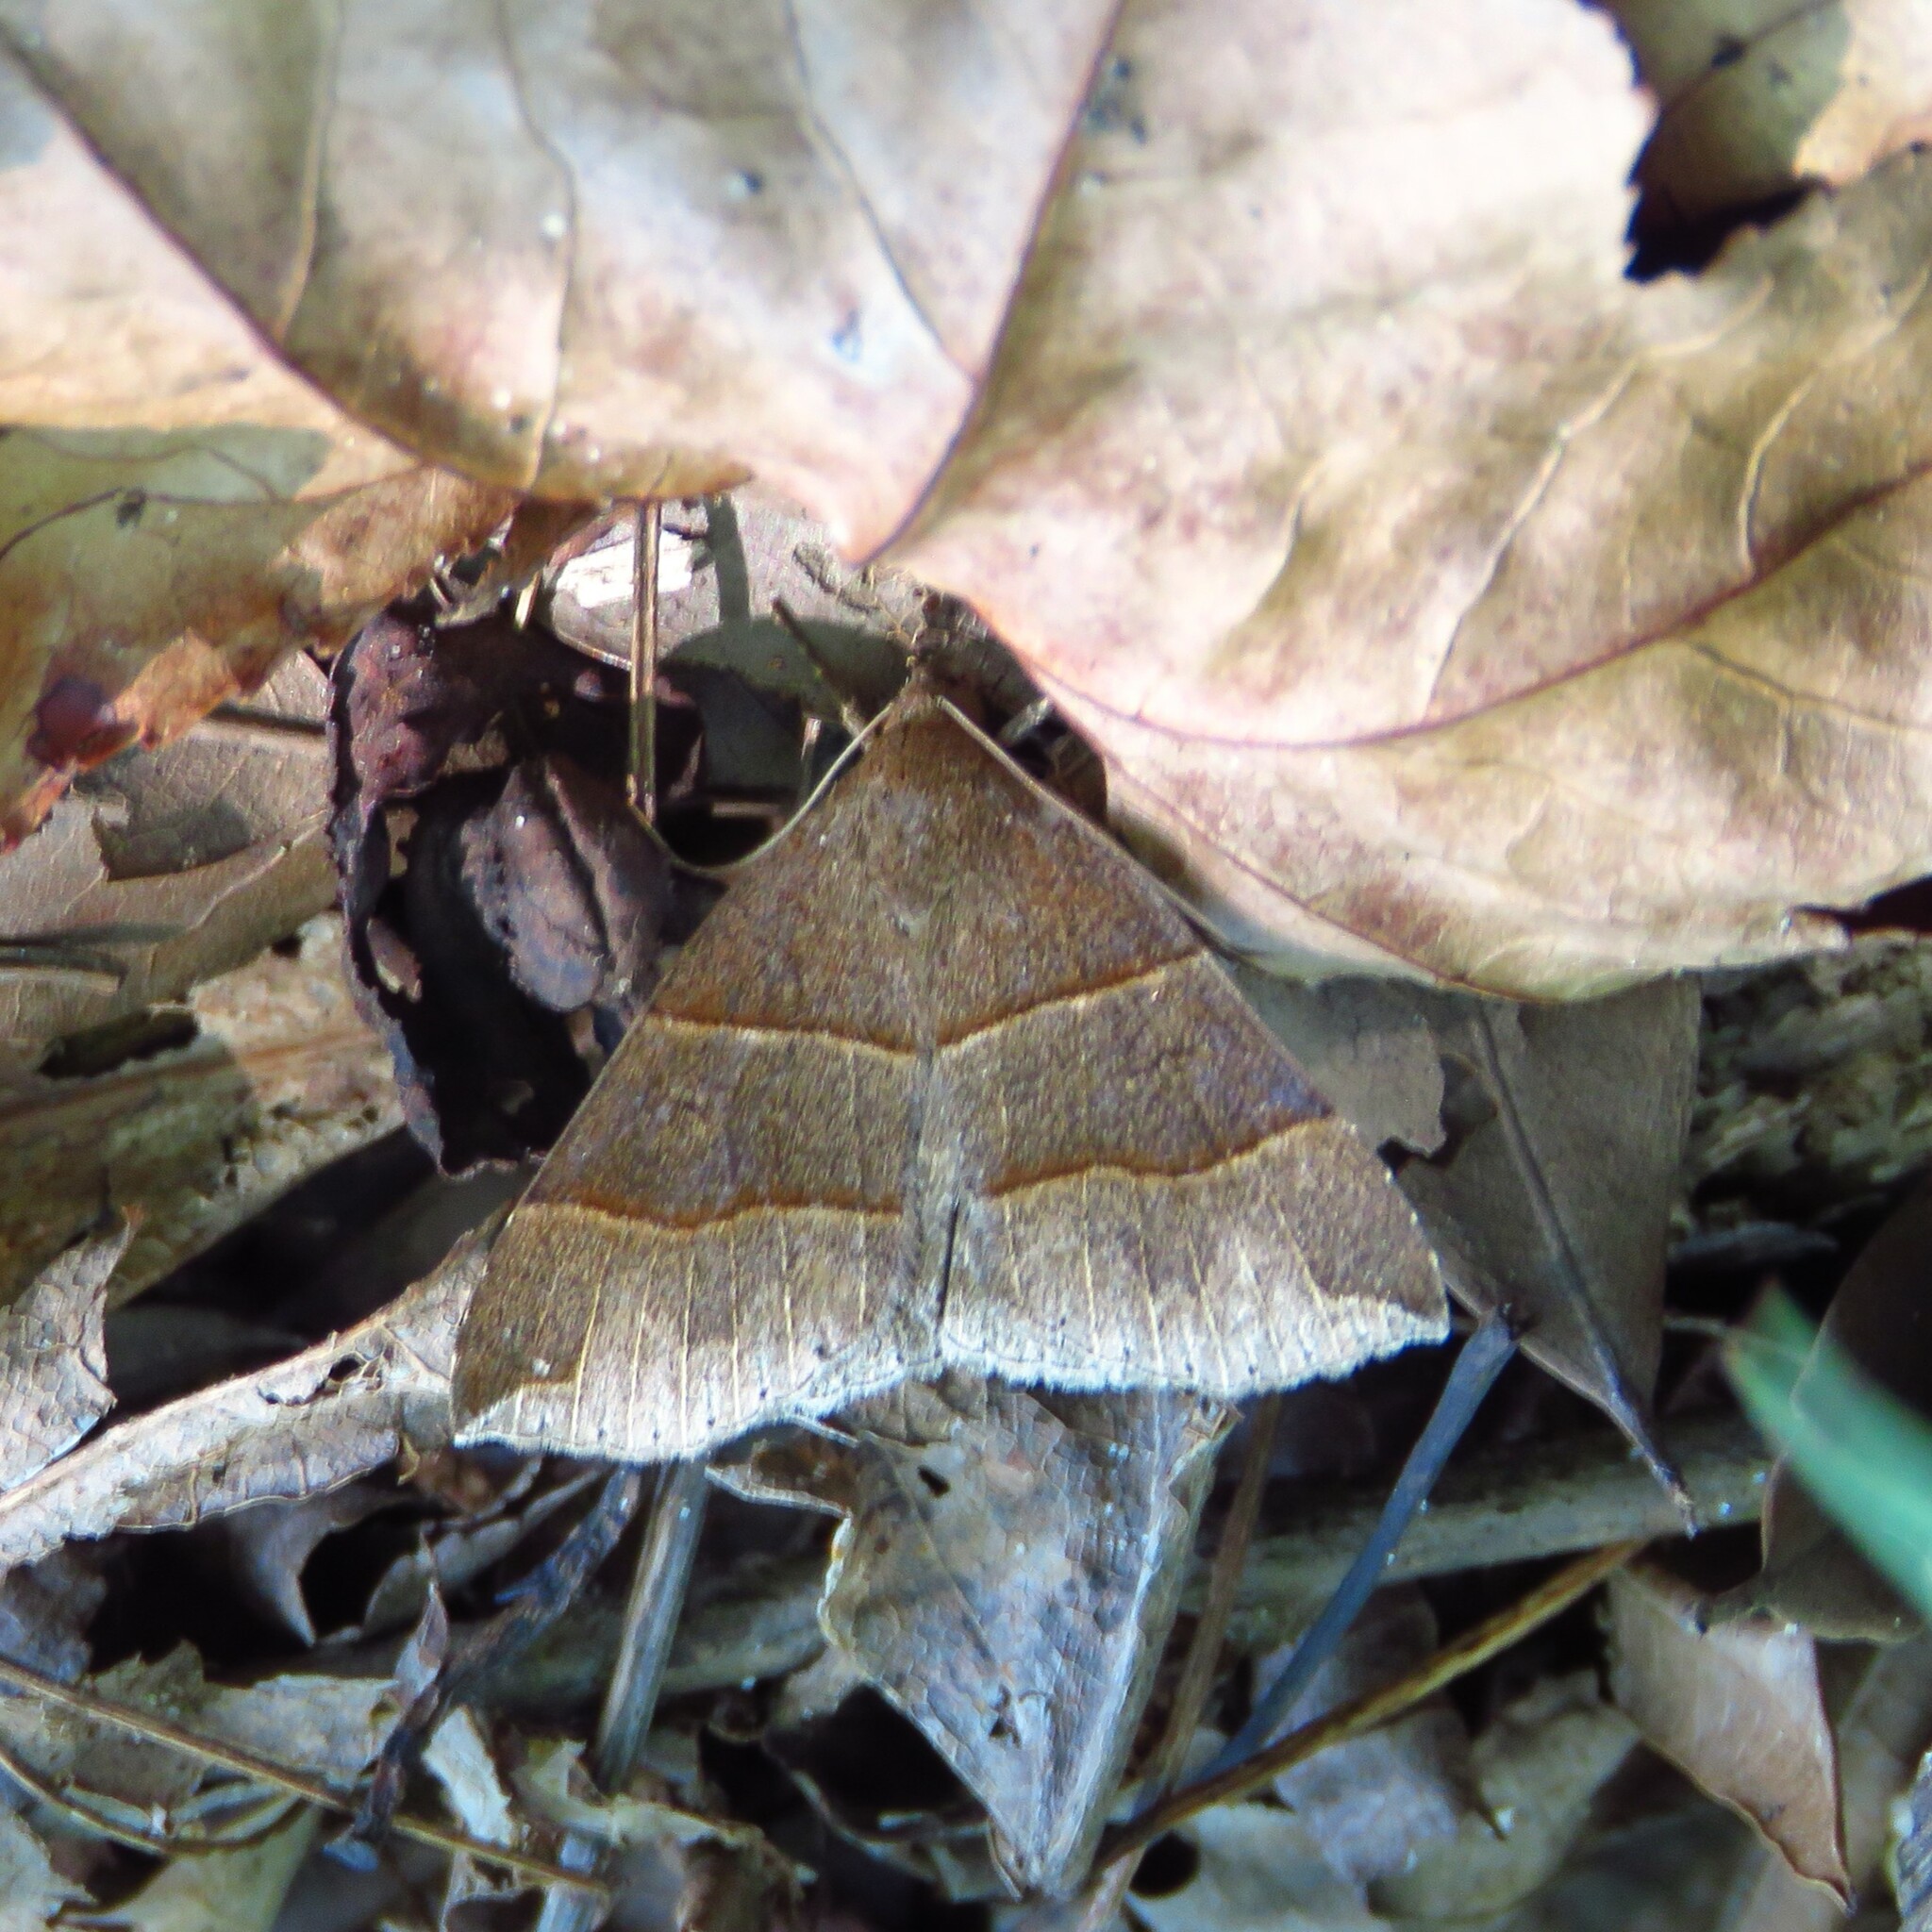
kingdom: Animalia
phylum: Arthropoda
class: Insecta
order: Lepidoptera
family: Erebidae
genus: Parallelia
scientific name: Parallelia bistriaris
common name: Maple looper moth
